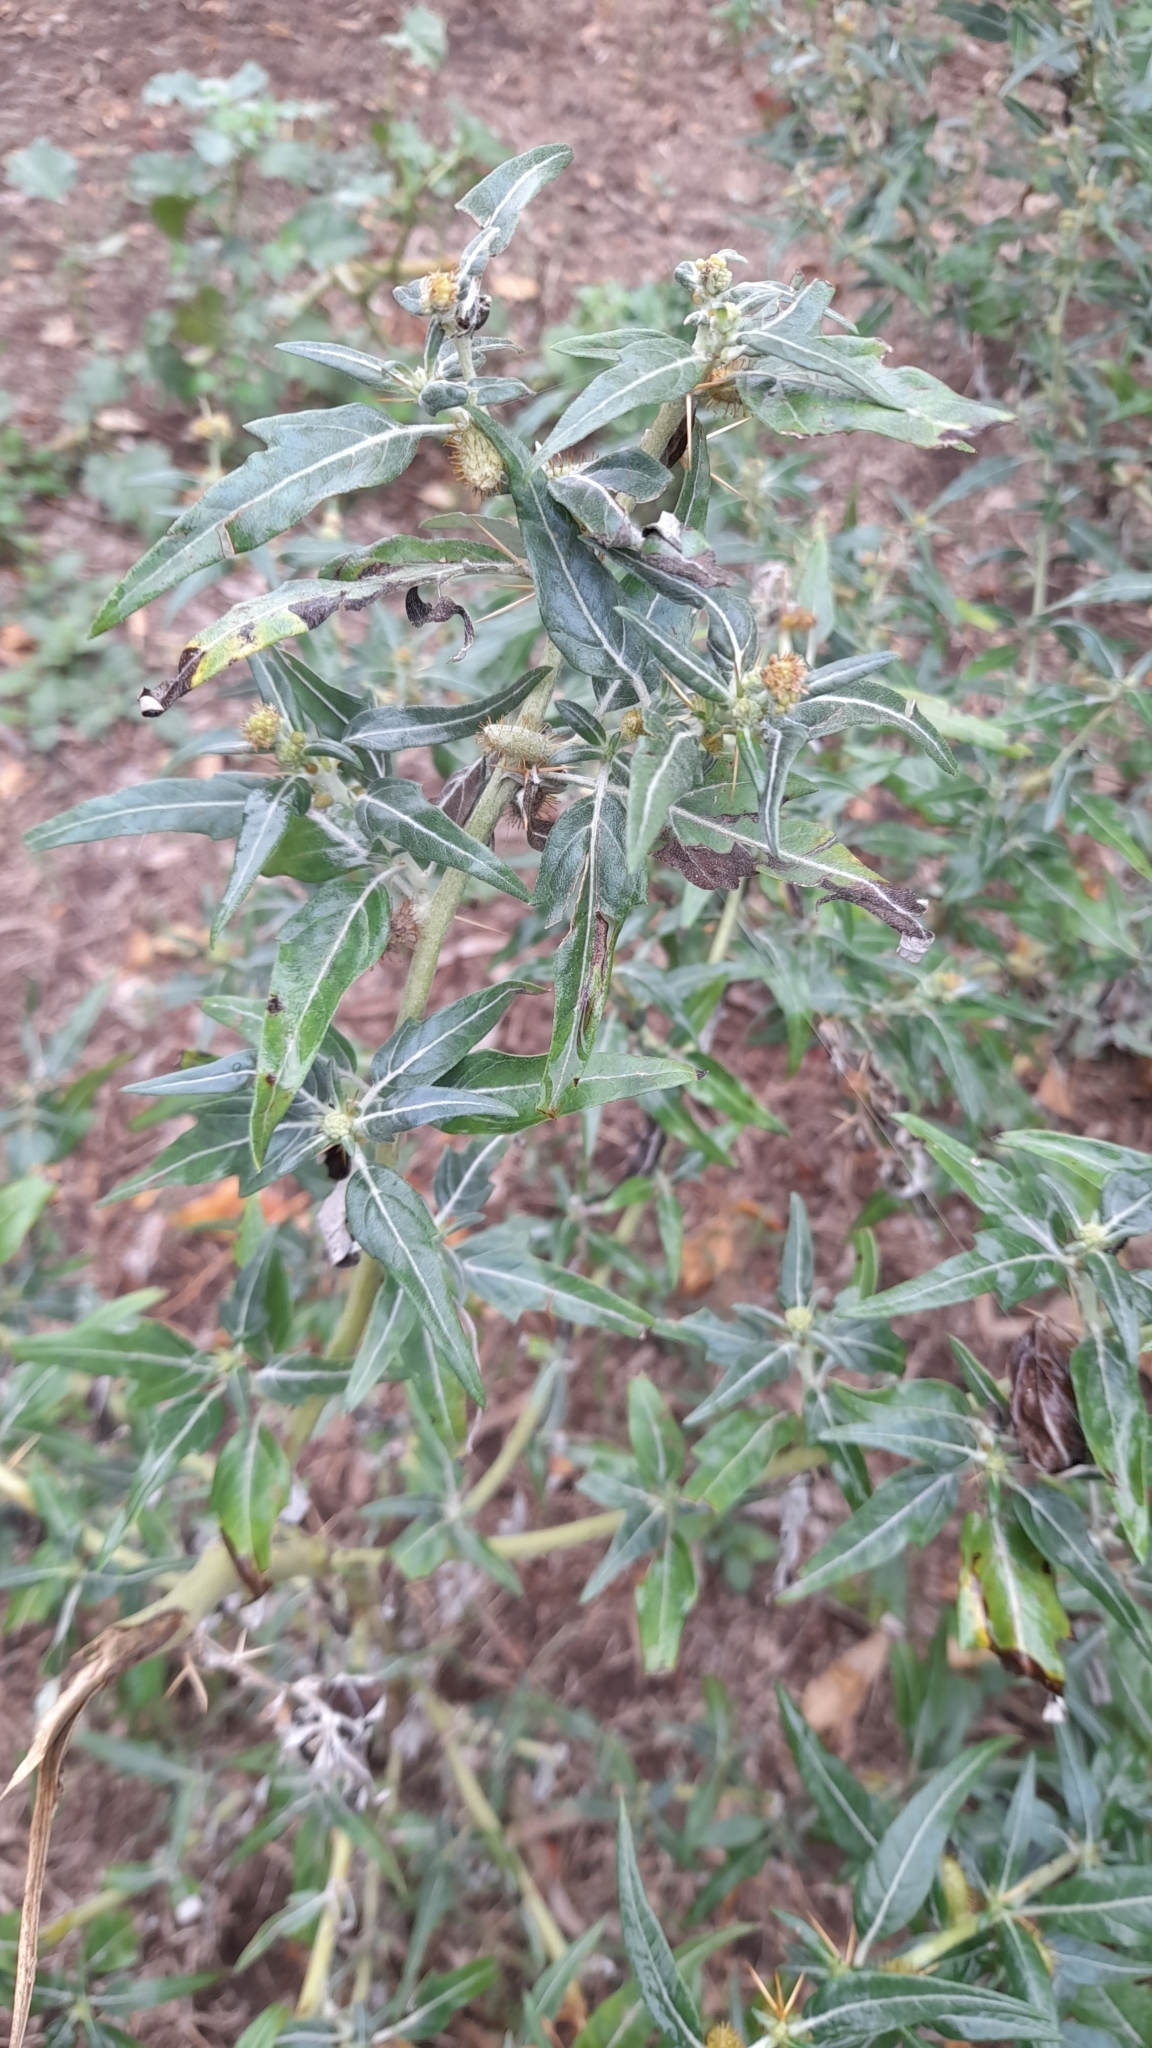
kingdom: Plantae
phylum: Tracheophyta
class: Magnoliopsida
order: Asterales
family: Asteraceae
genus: Xanthium
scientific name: Xanthium spinosum
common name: Spiny cocklebur
